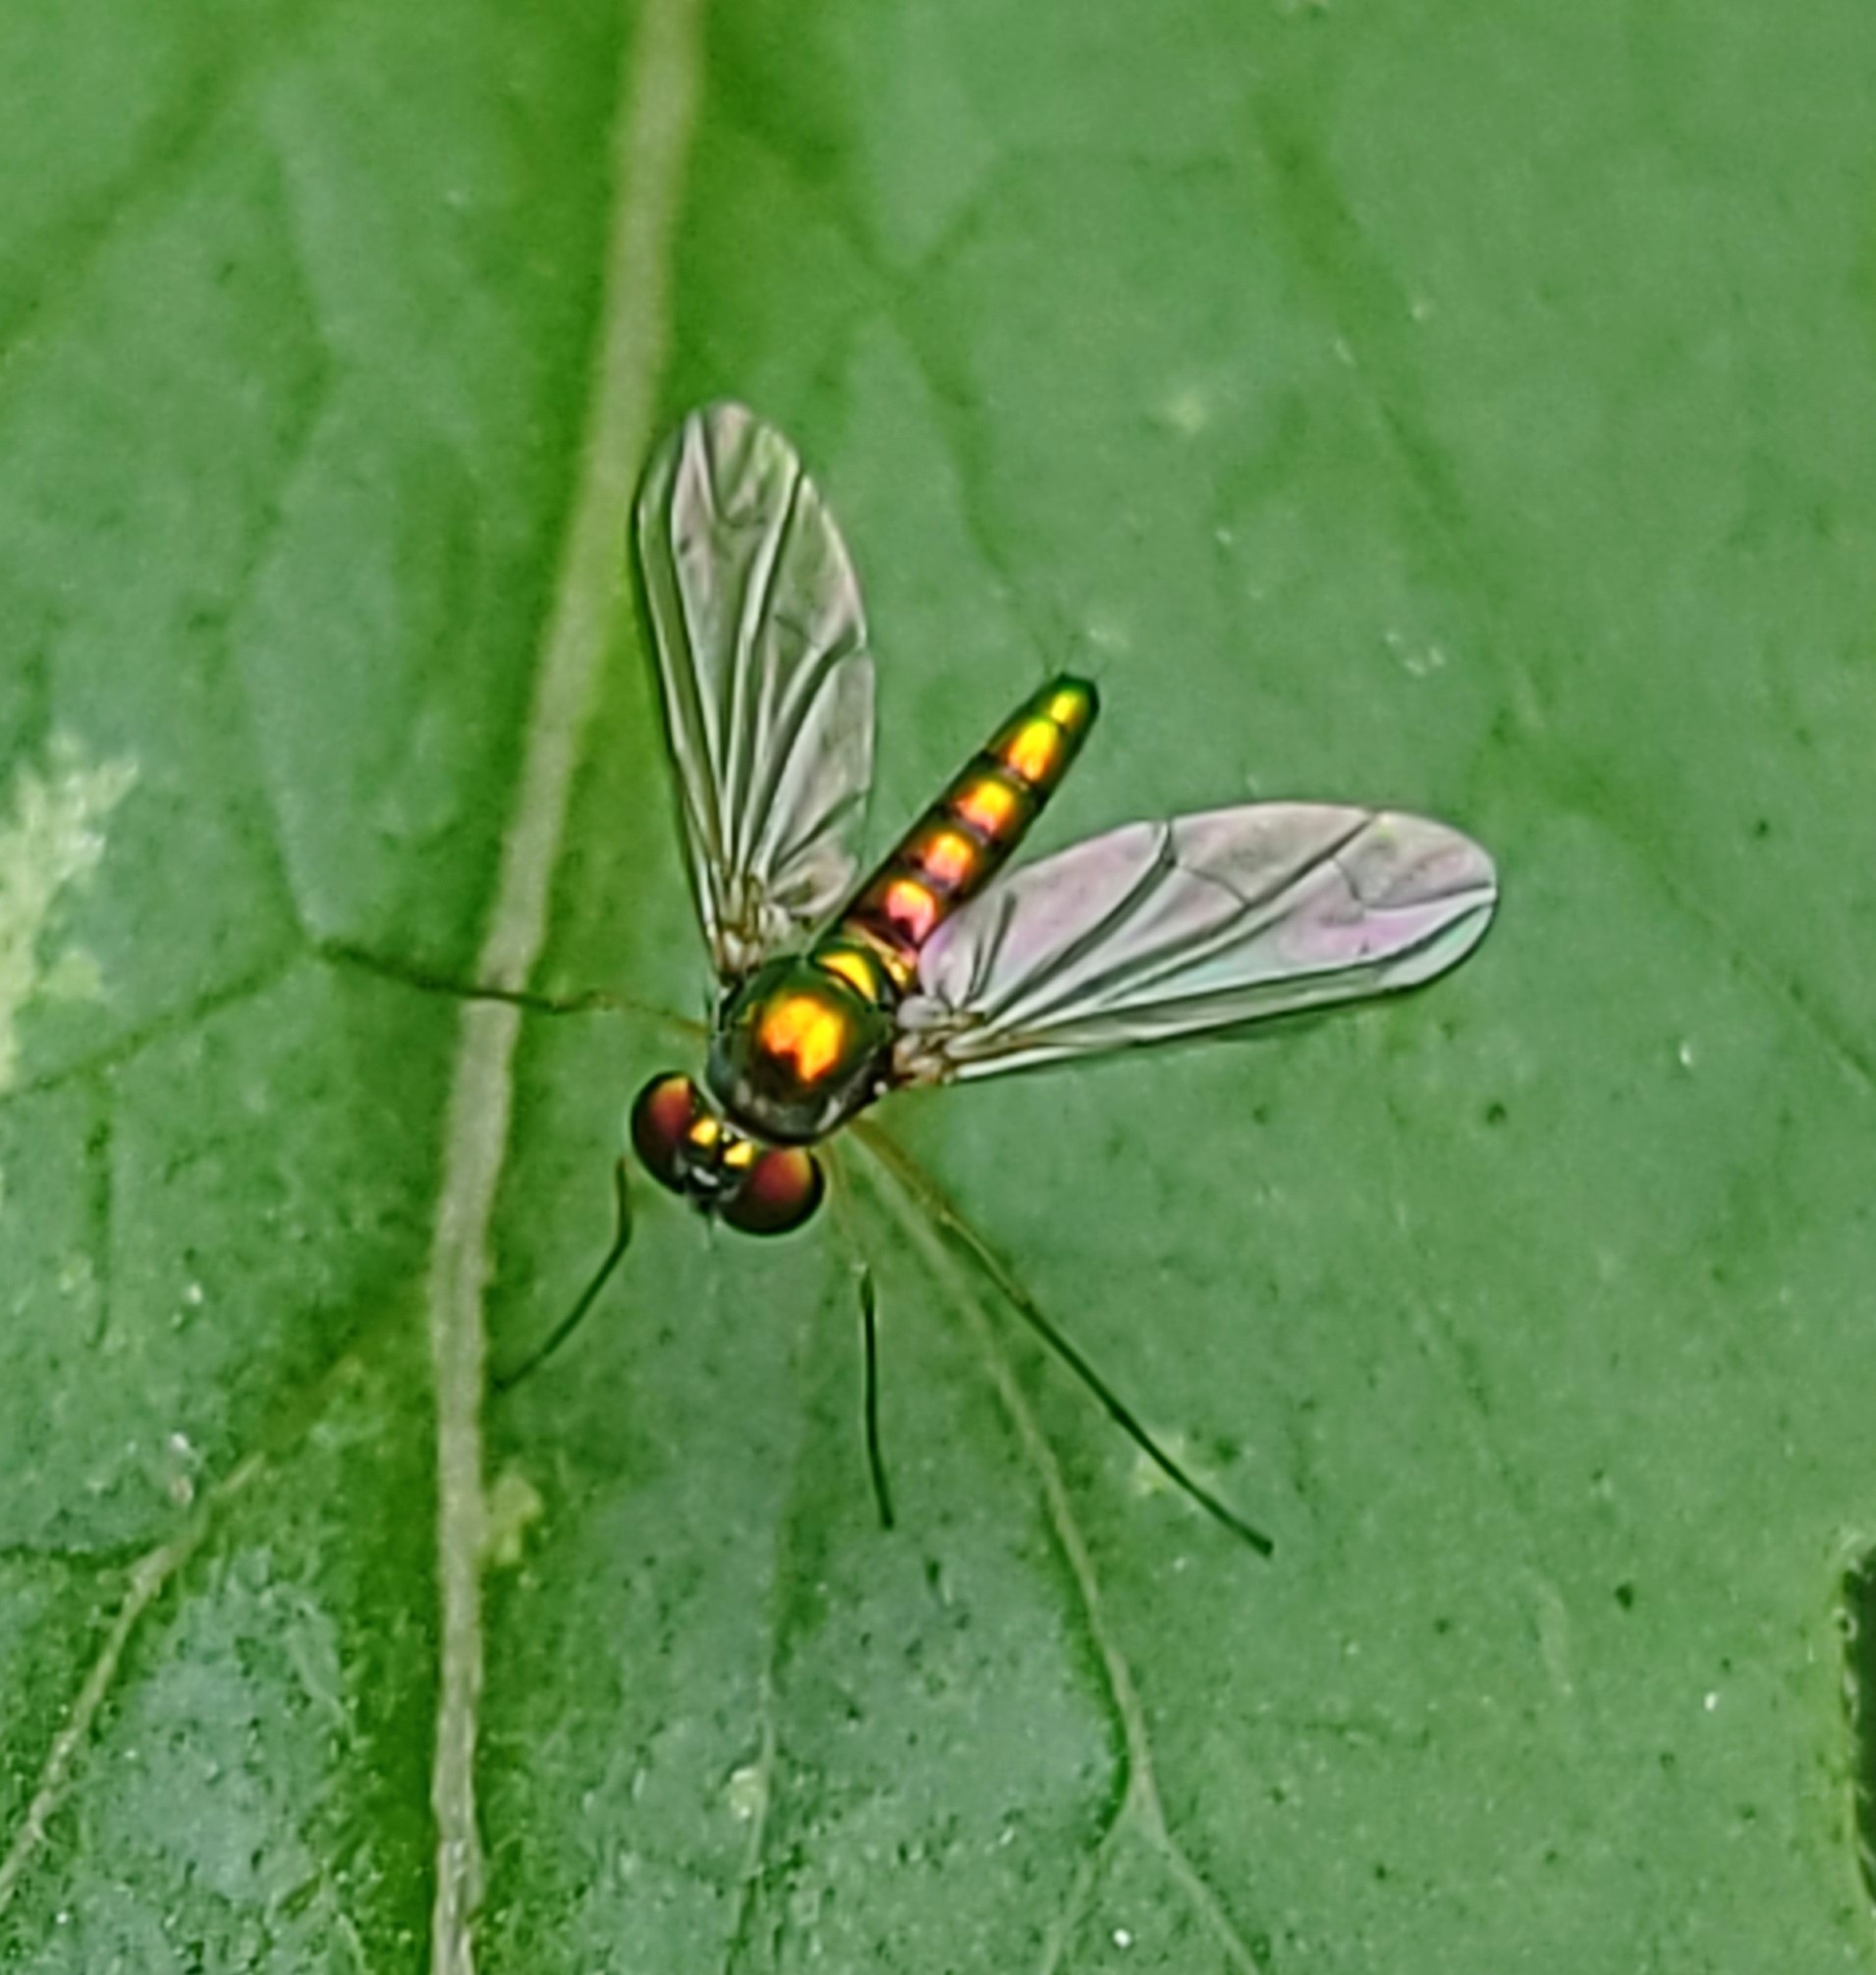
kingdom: Animalia
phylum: Arthropoda
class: Insecta
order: Diptera
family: Dolichopodidae
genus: Amblypsilopus
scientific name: Amblypsilopus scintillans
